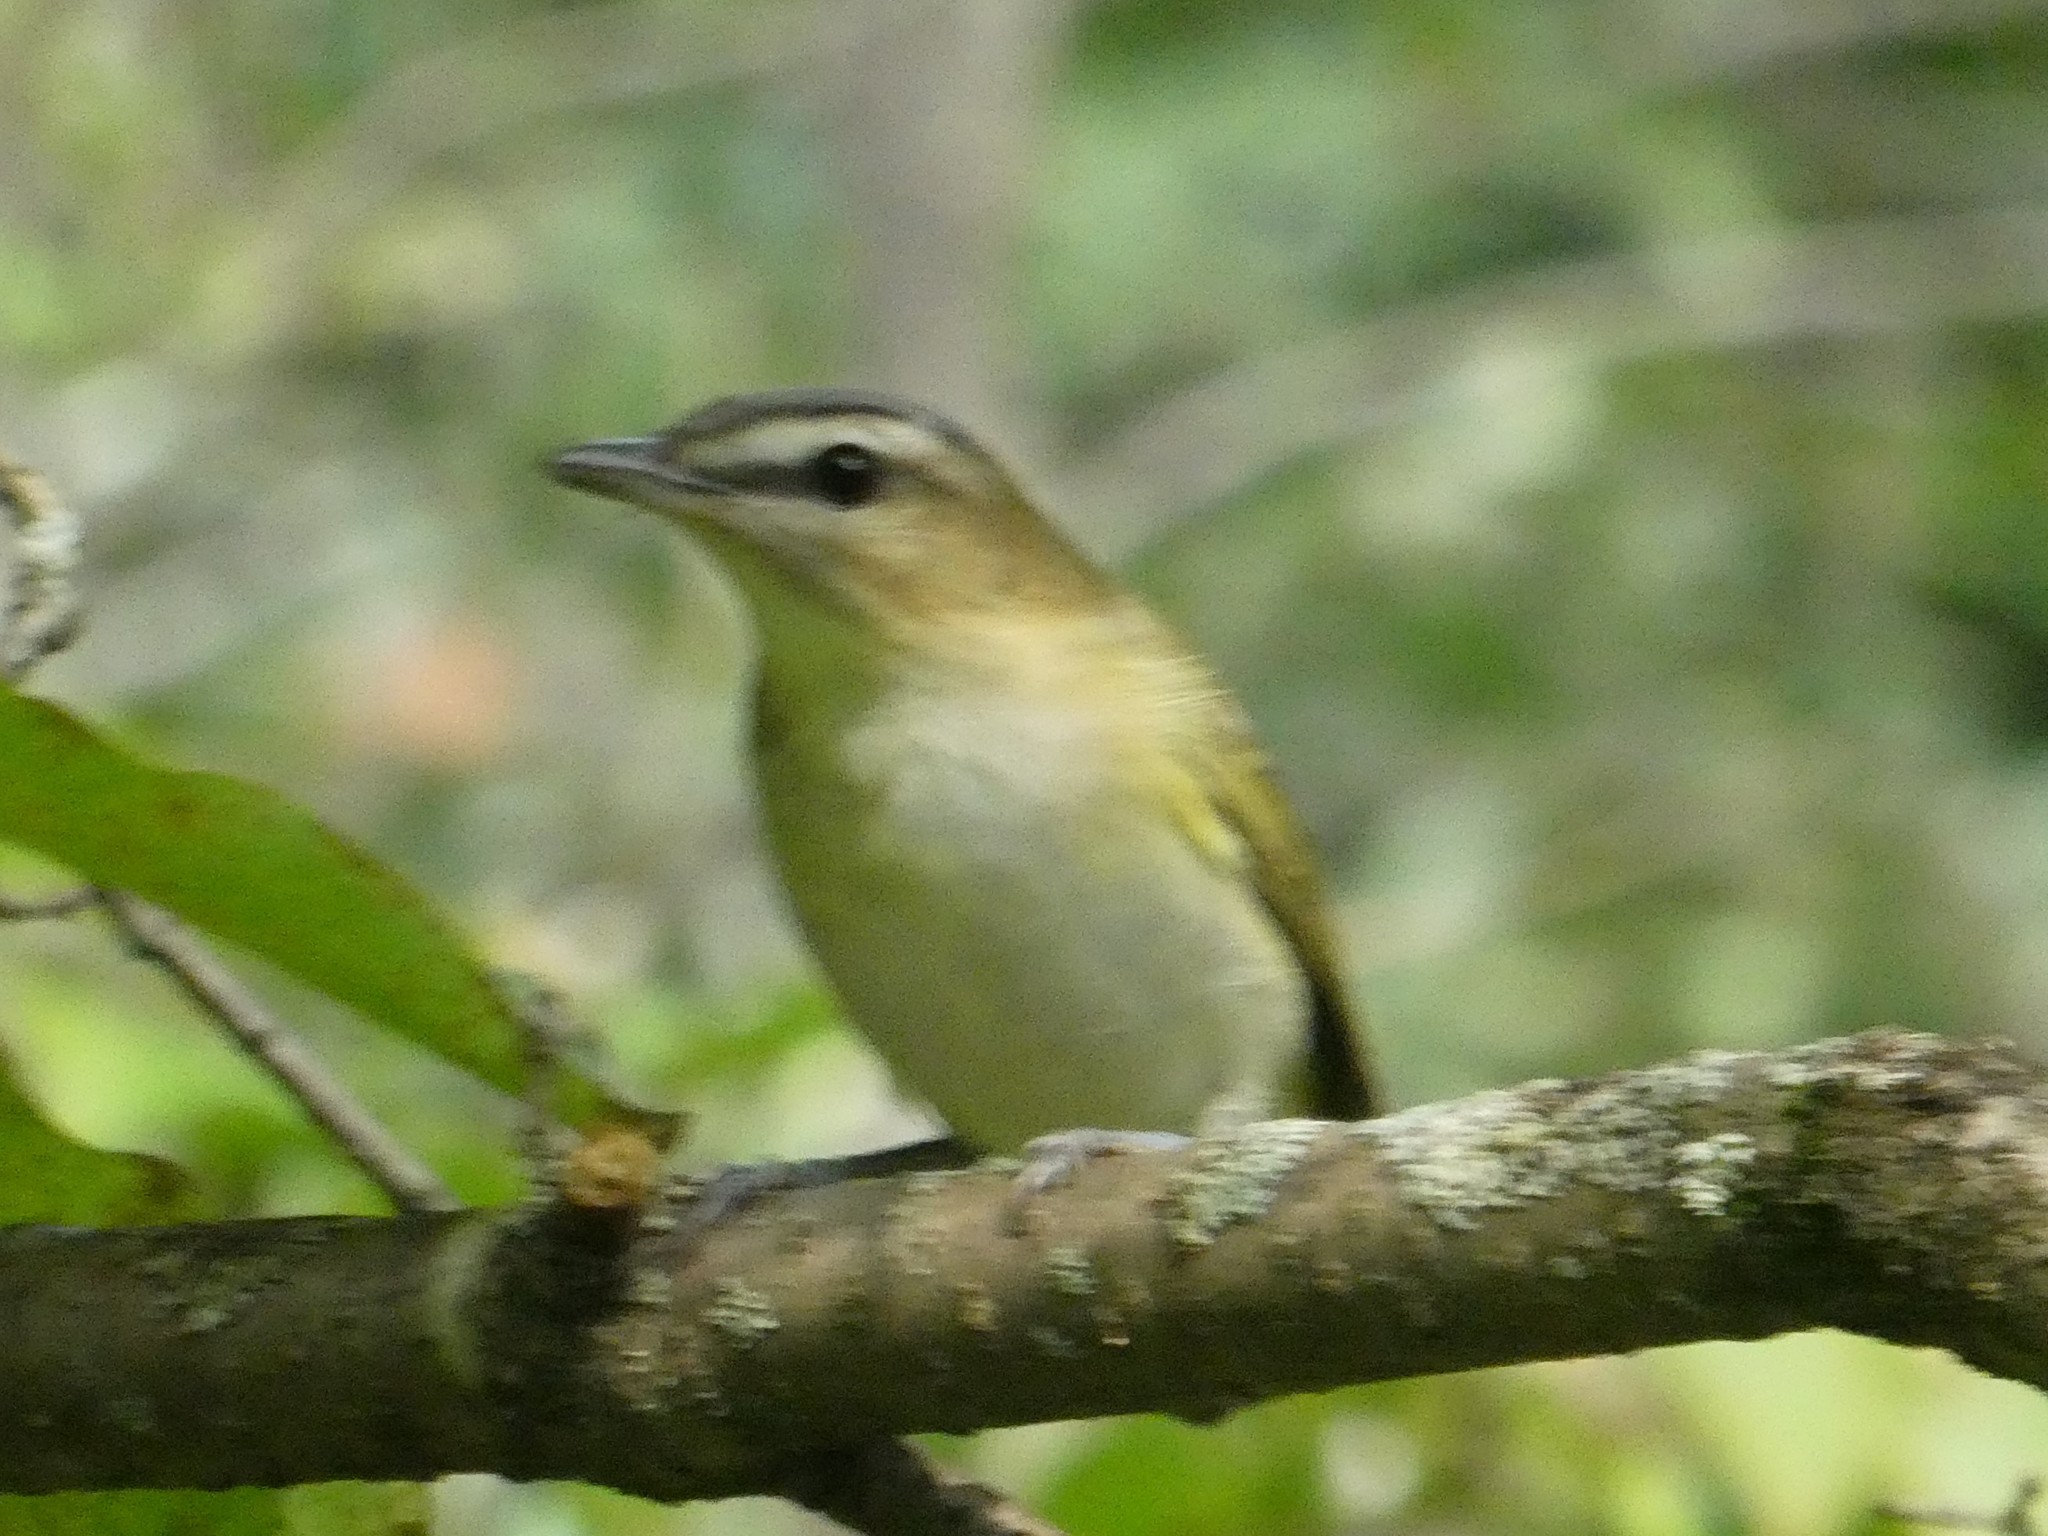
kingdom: Animalia
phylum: Chordata
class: Aves
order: Passeriformes
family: Vireonidae
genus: Vireo
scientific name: Vireo olivaceus
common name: Red-eyed vireo
